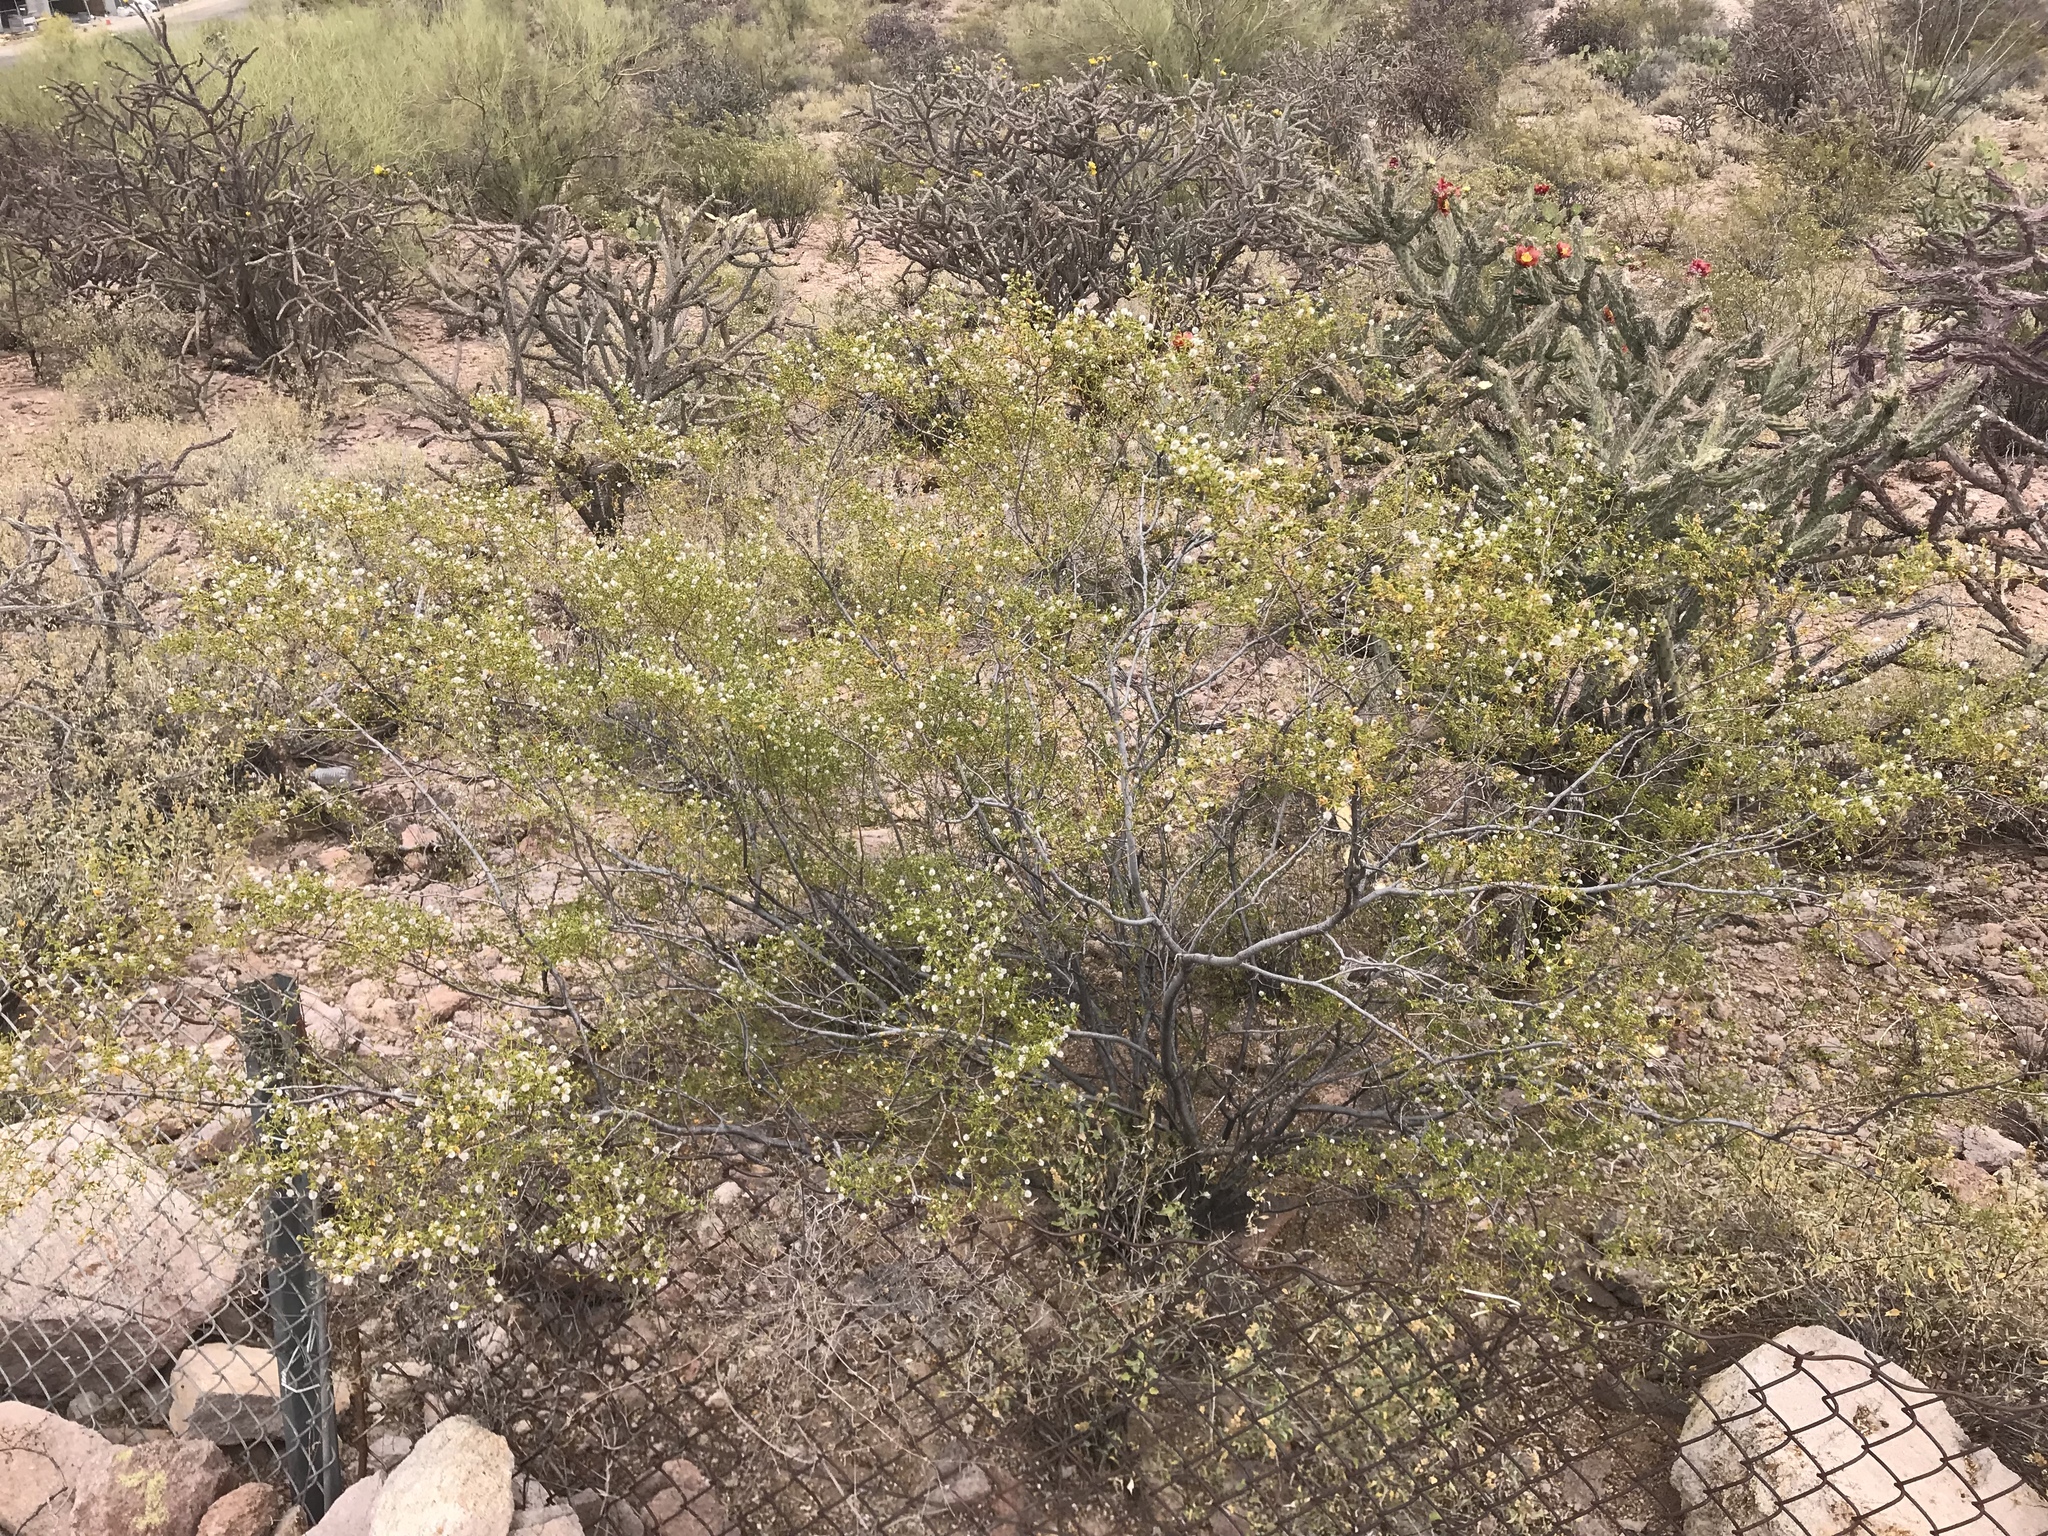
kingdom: Plantae
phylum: Tracheophyta
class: Magnoliopsida
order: Zygophyllales
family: Zygophyllaceae
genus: Larrea
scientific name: Larrea tridentata
